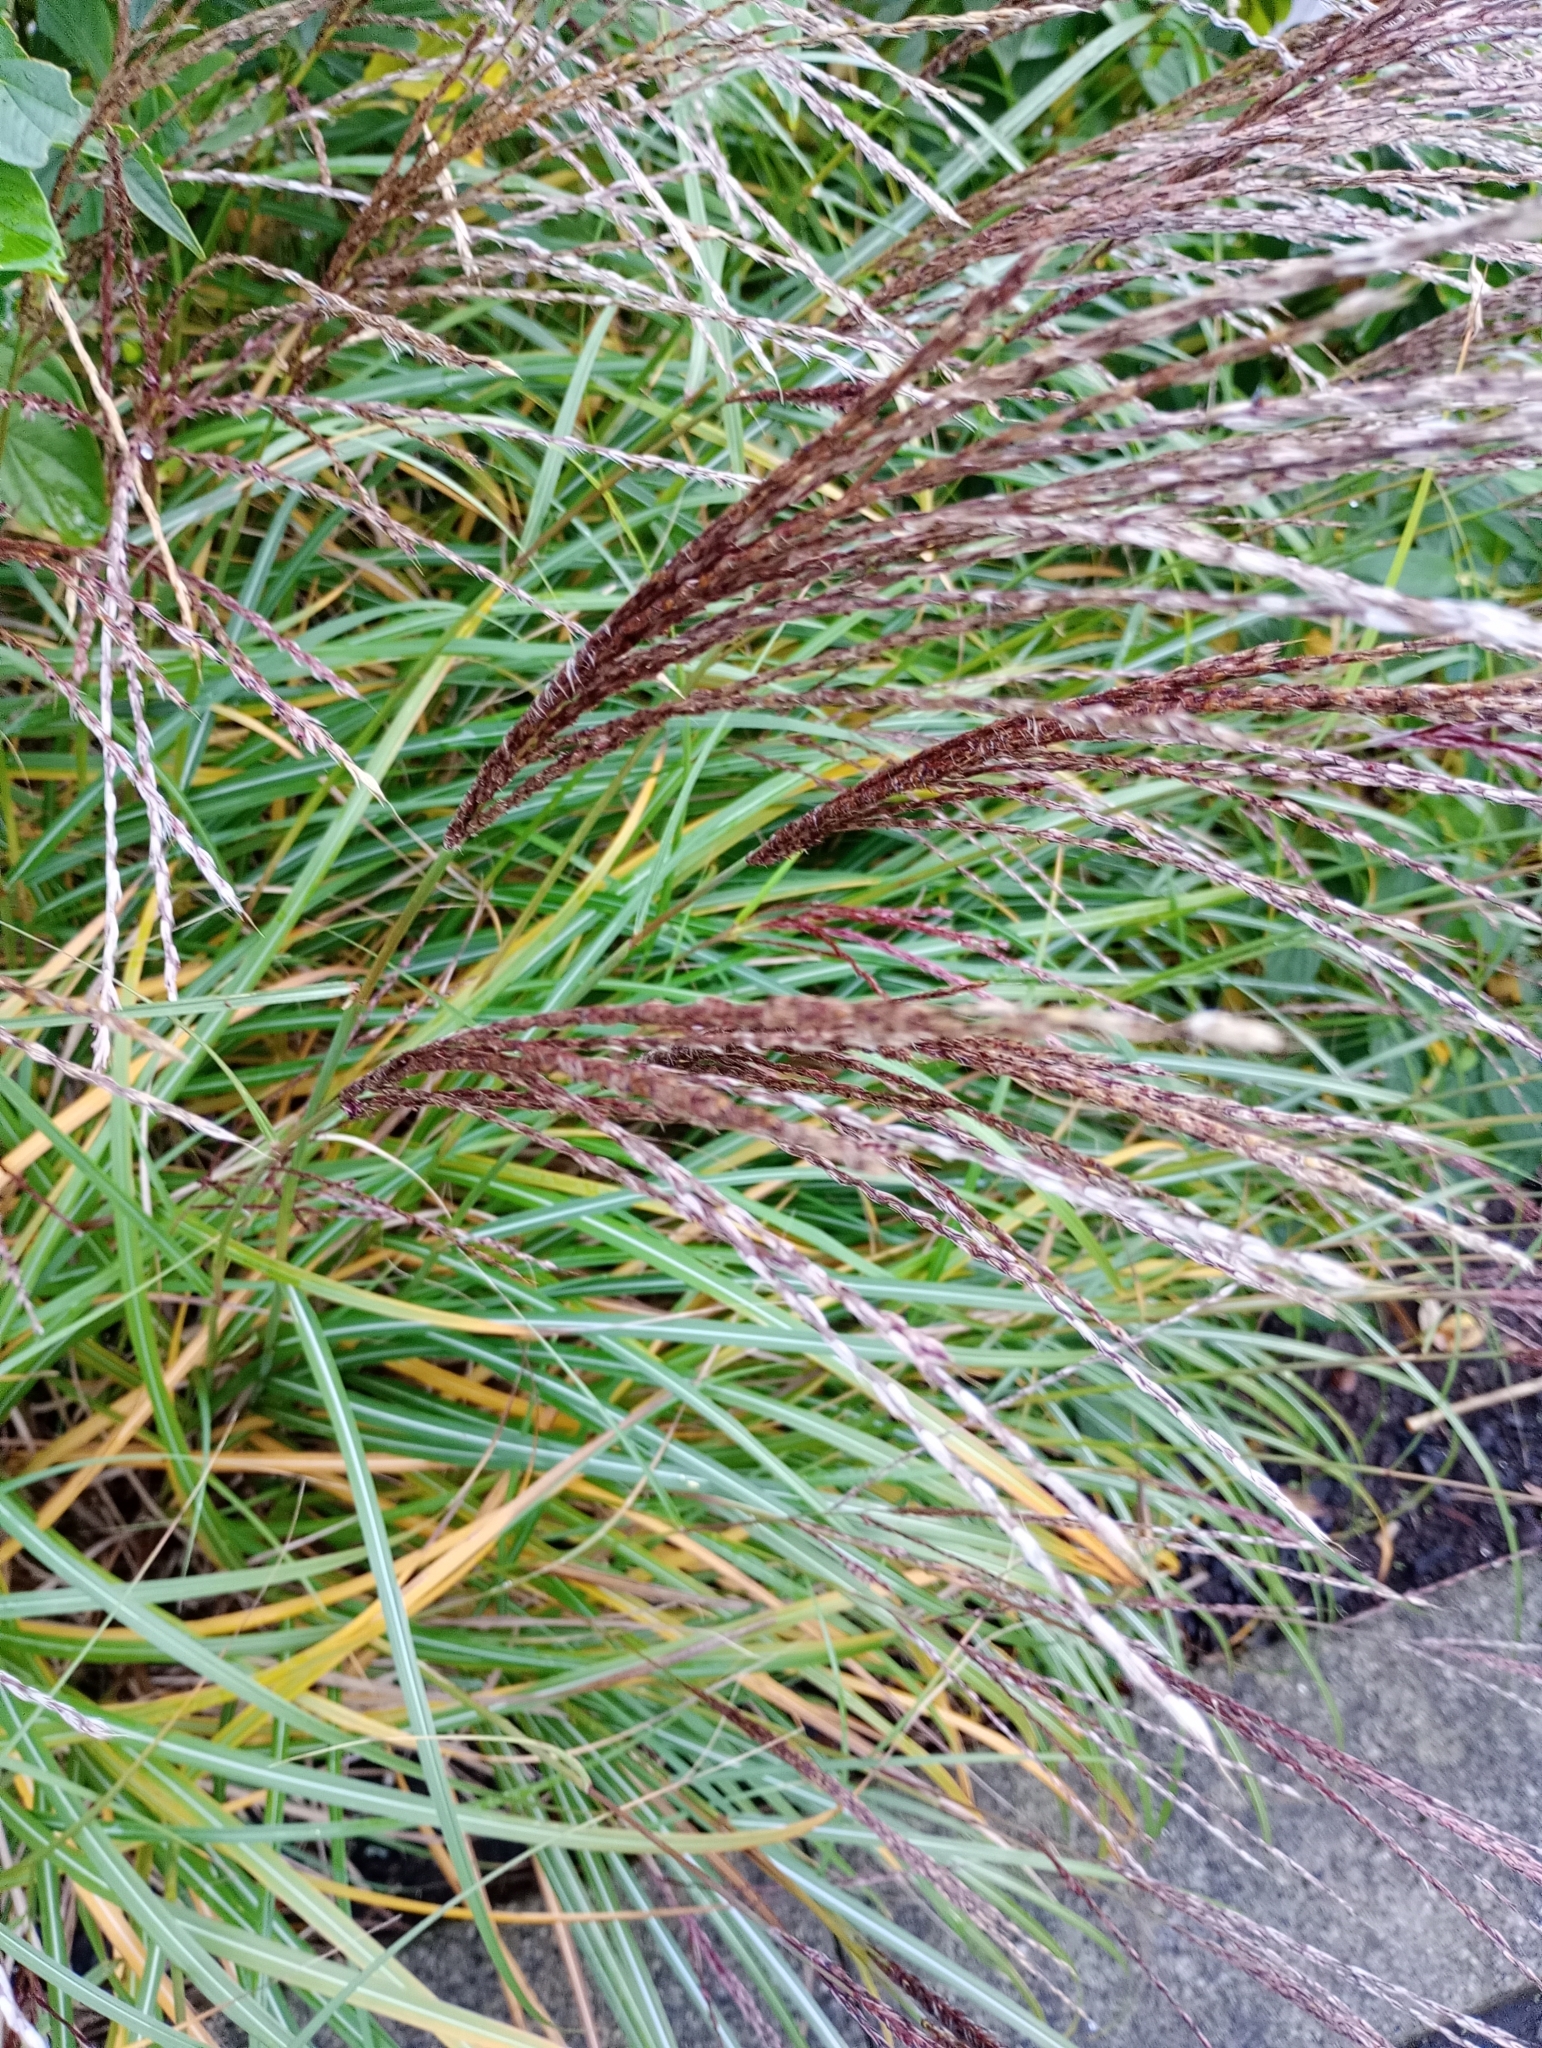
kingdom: Plantae
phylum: Tracheophyta
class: Liliopsida
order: Poales
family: Poaceae
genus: Miscanthus
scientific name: Miscanthus sinensis
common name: Chinese silvergrass
